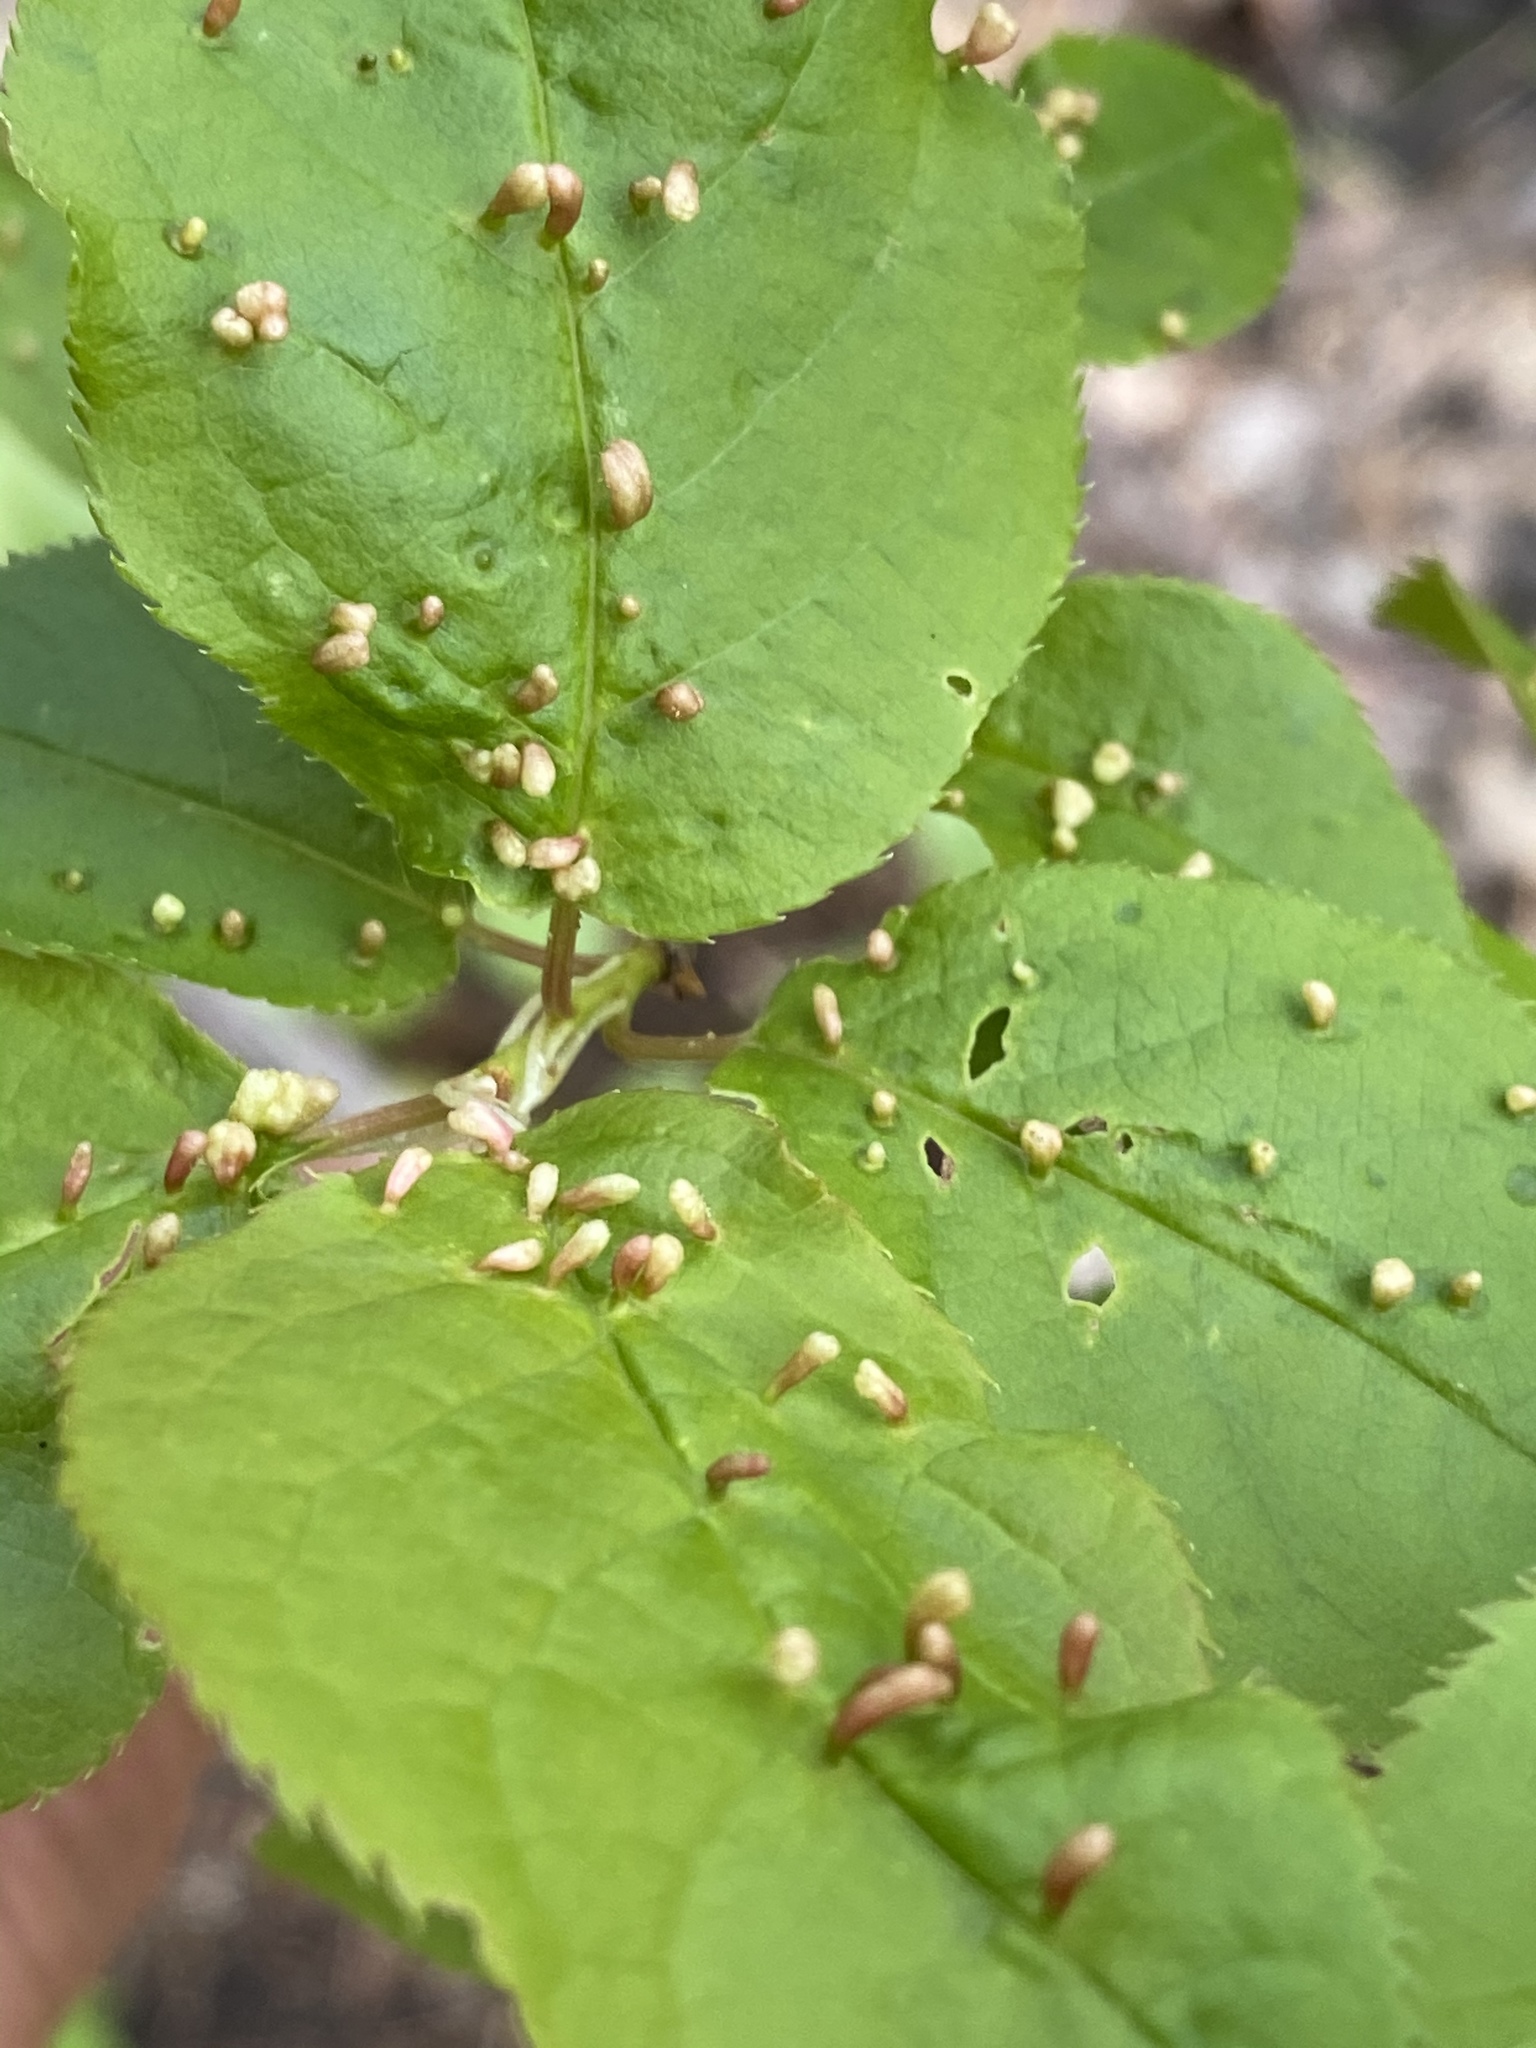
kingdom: Animalia
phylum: Arthropoda
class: Arachnida
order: Trombidiformes
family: Eriophyidae
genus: Eriophyes
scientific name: Eriophyes emarginatae
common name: Plum leaf gall mite
